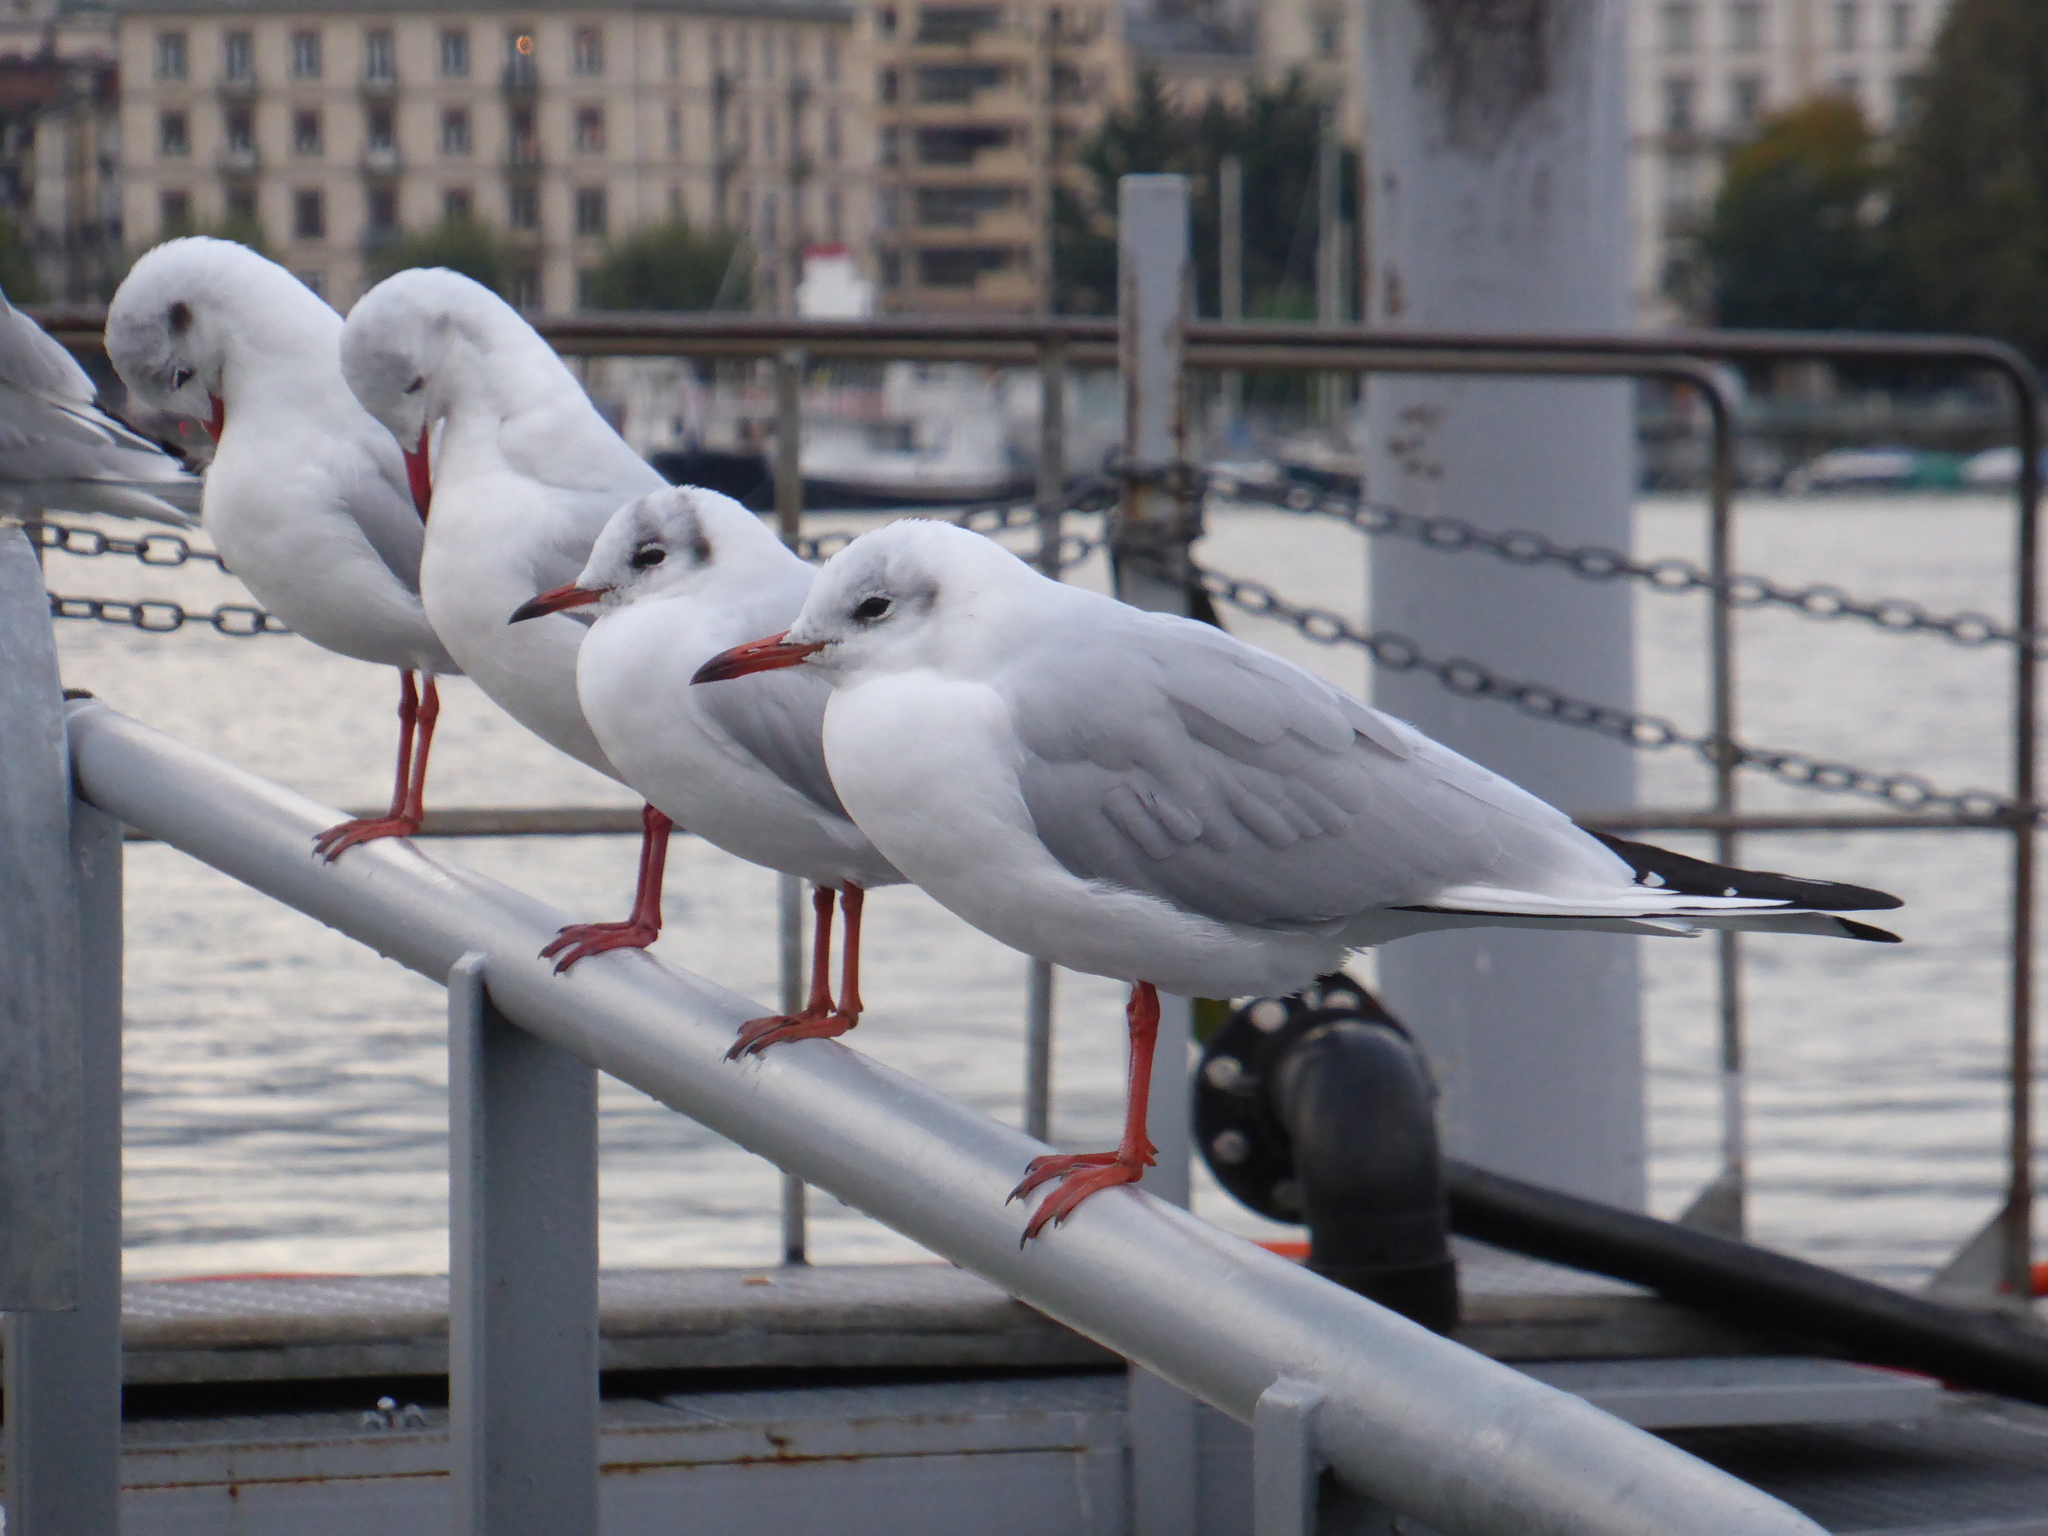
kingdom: Animalia
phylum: Chordata
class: Aves
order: Charadriiformes
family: Laridae
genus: Chroicocephalus
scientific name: Chroicocephalus ridibundus
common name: Black-headed gull
